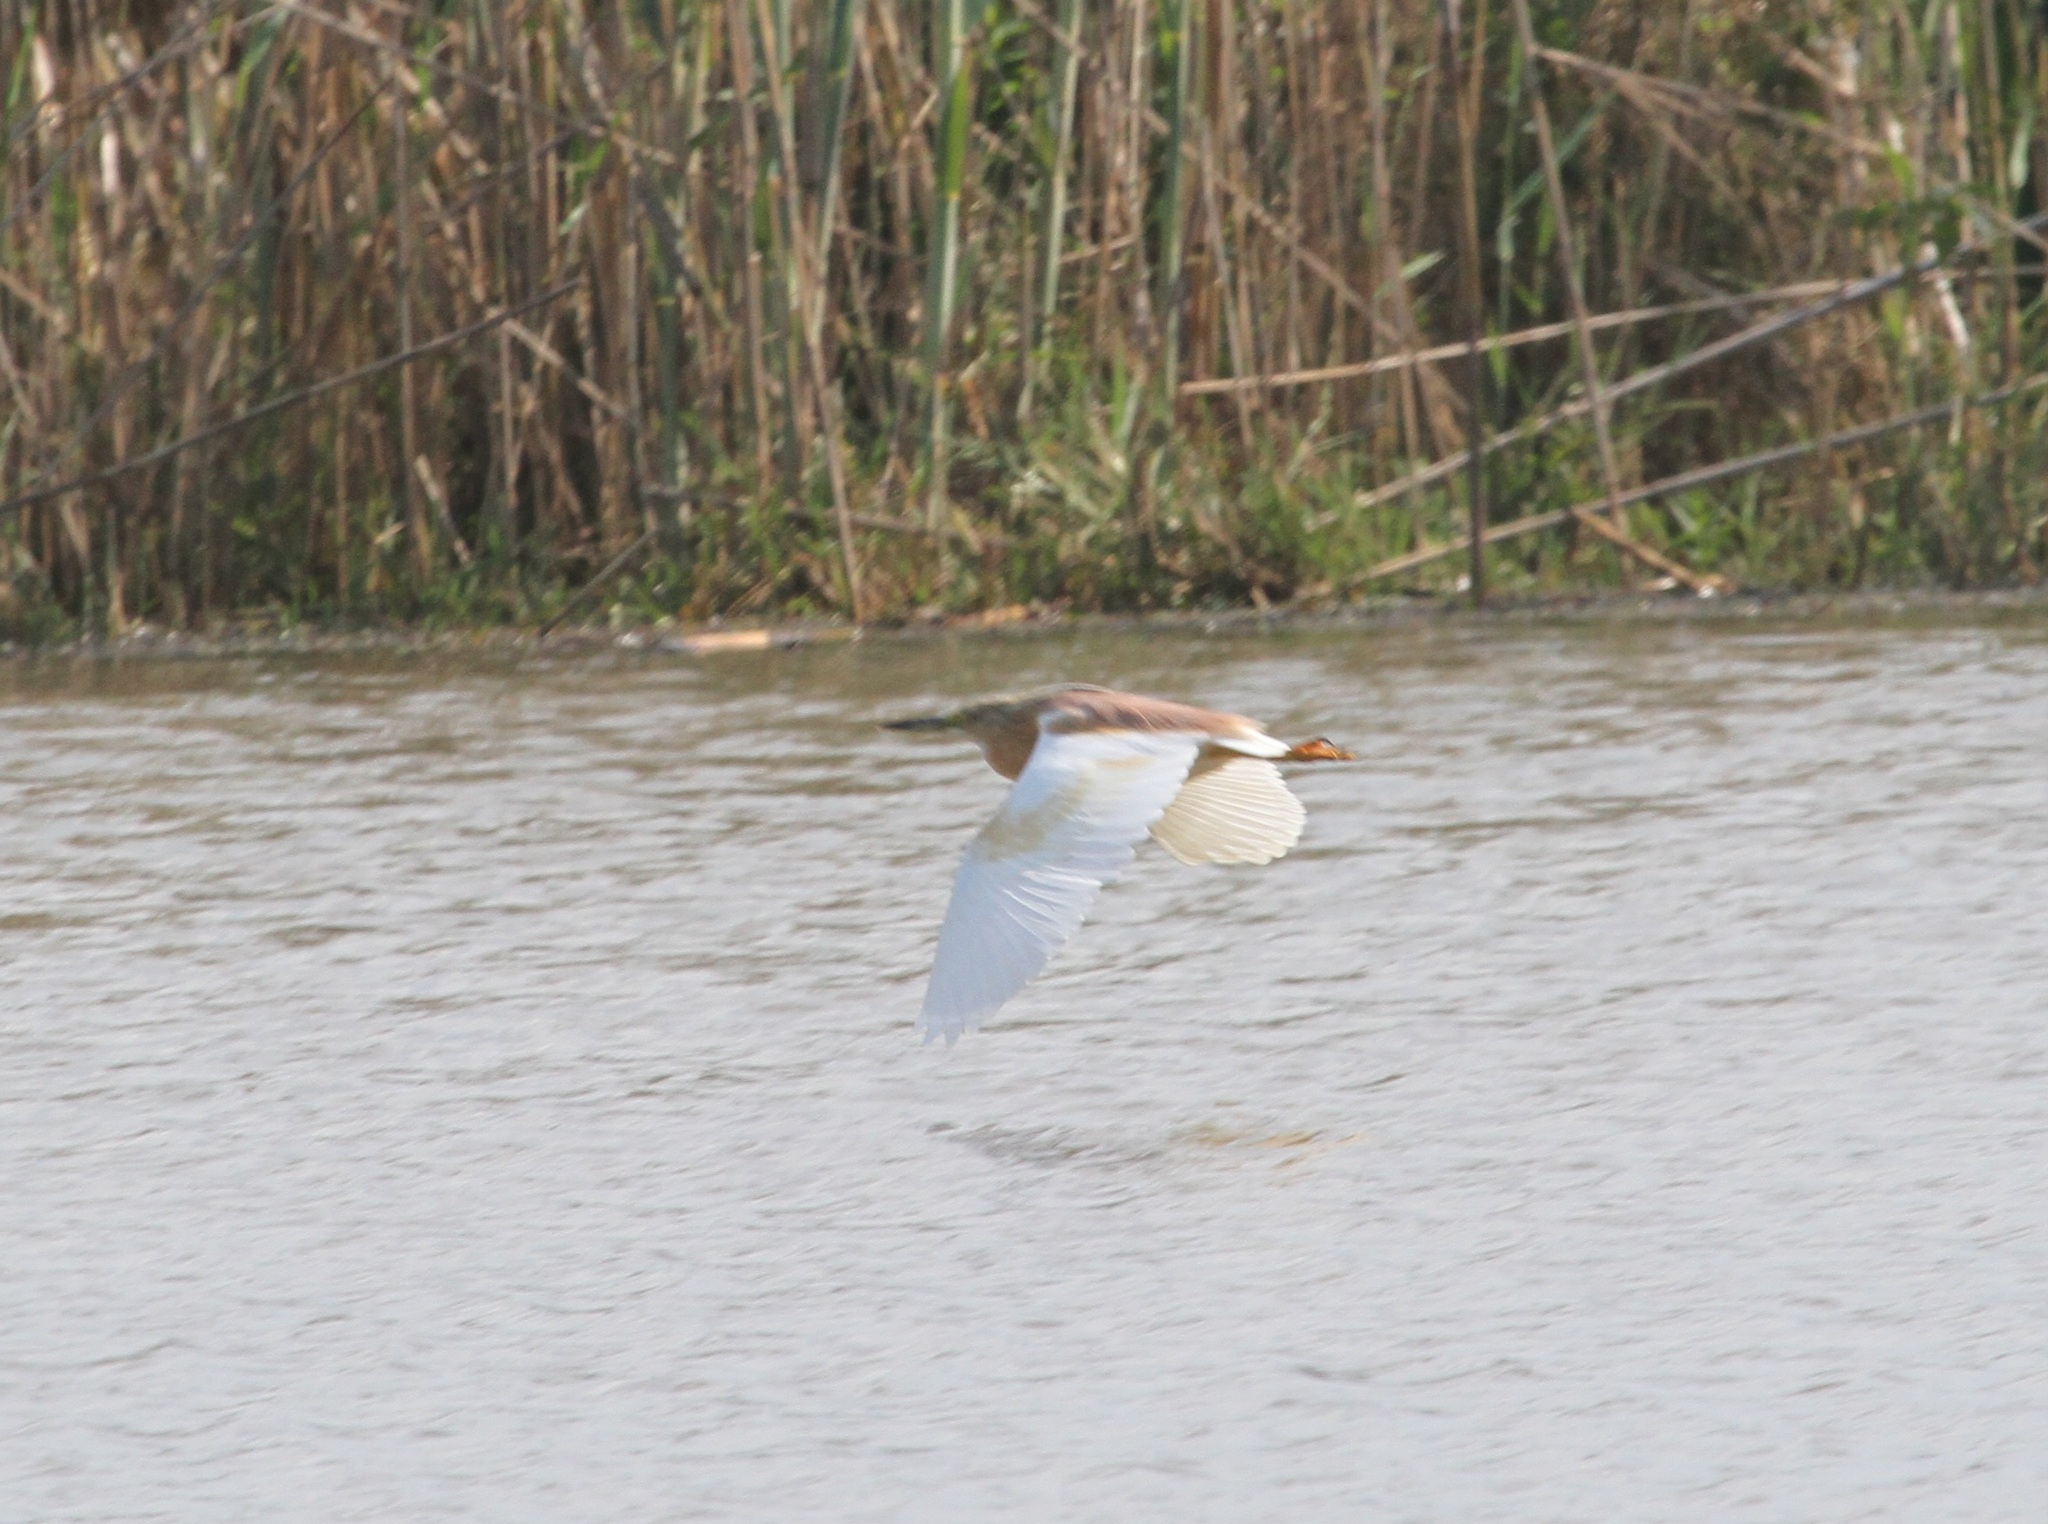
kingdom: Animalia
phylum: Chordata
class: Aves
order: Pelecaniformes
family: Ardeidae
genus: Ardeola
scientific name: Ardeola ralloides
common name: Squacco heron
